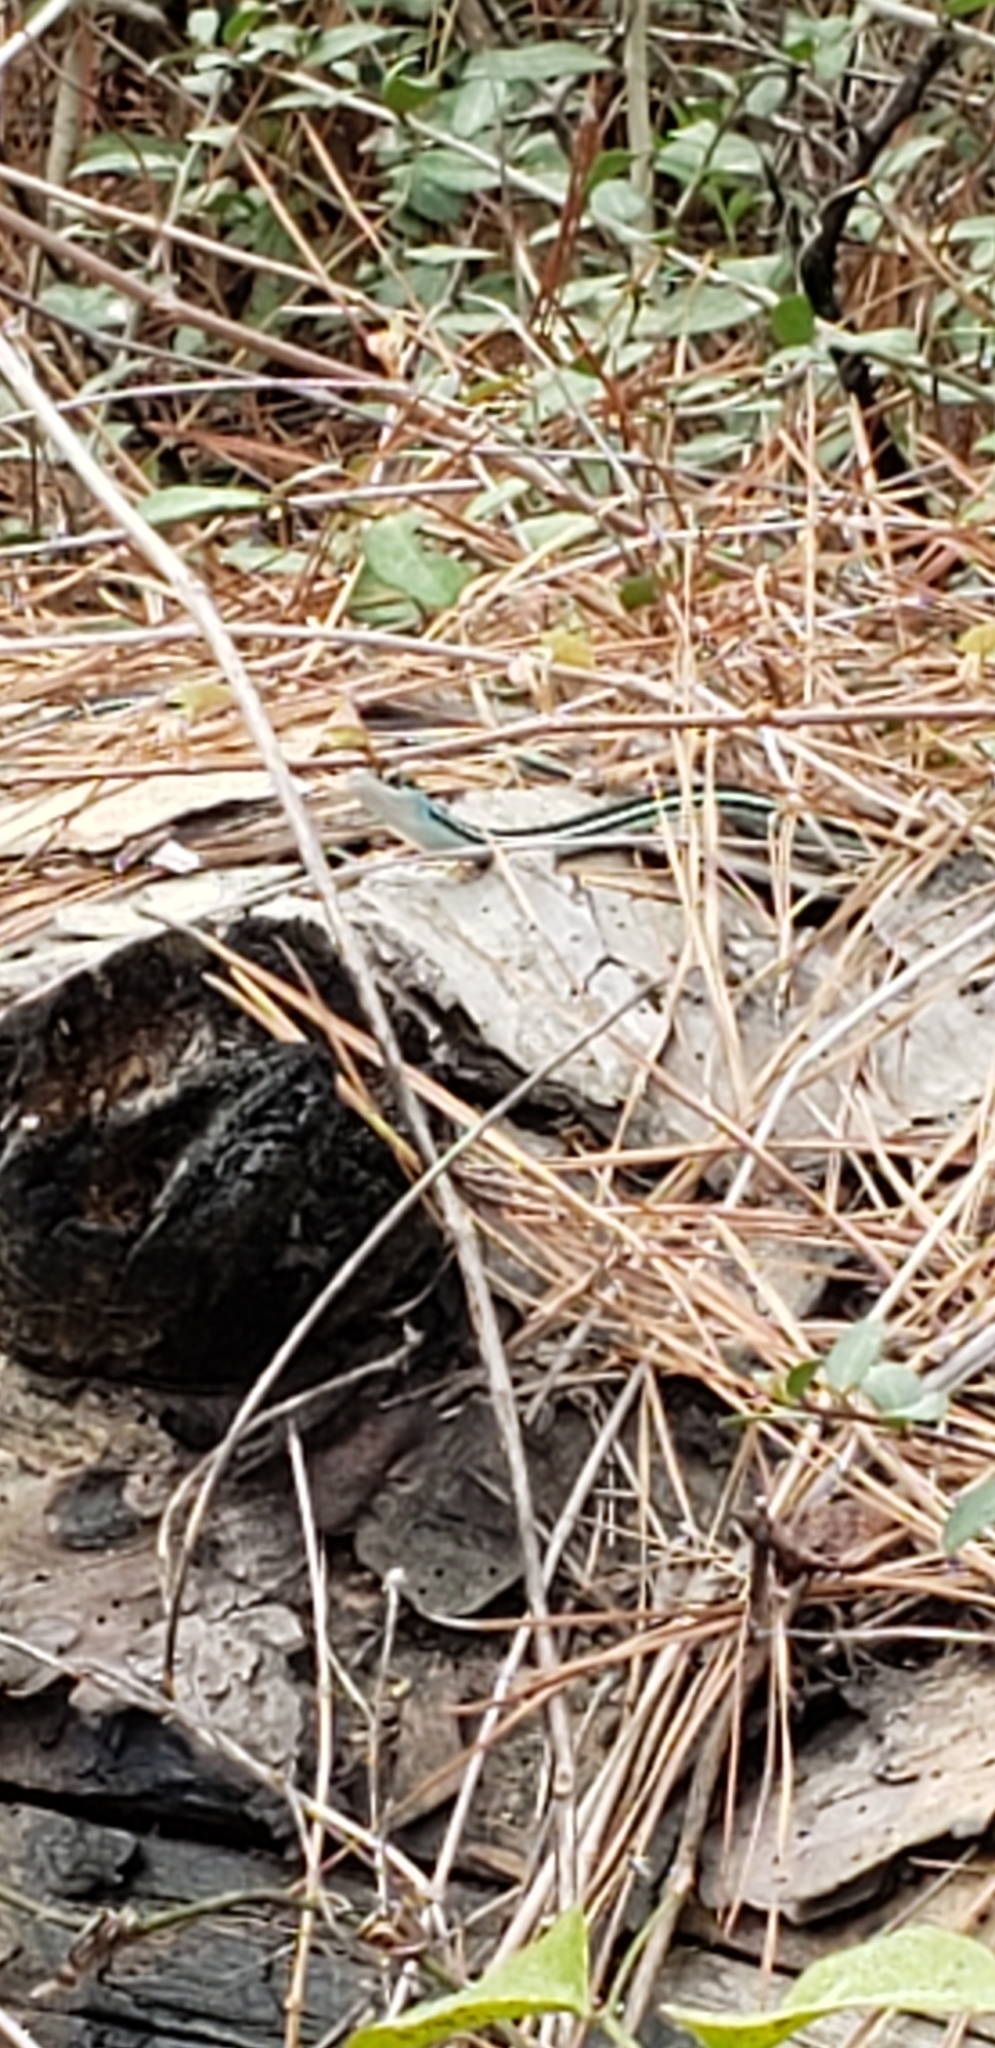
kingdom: Animalia
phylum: Chordata
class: Squamata
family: Colubridae
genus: Thamnophis
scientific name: Thamnophis proximus
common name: Western ribbon snake
